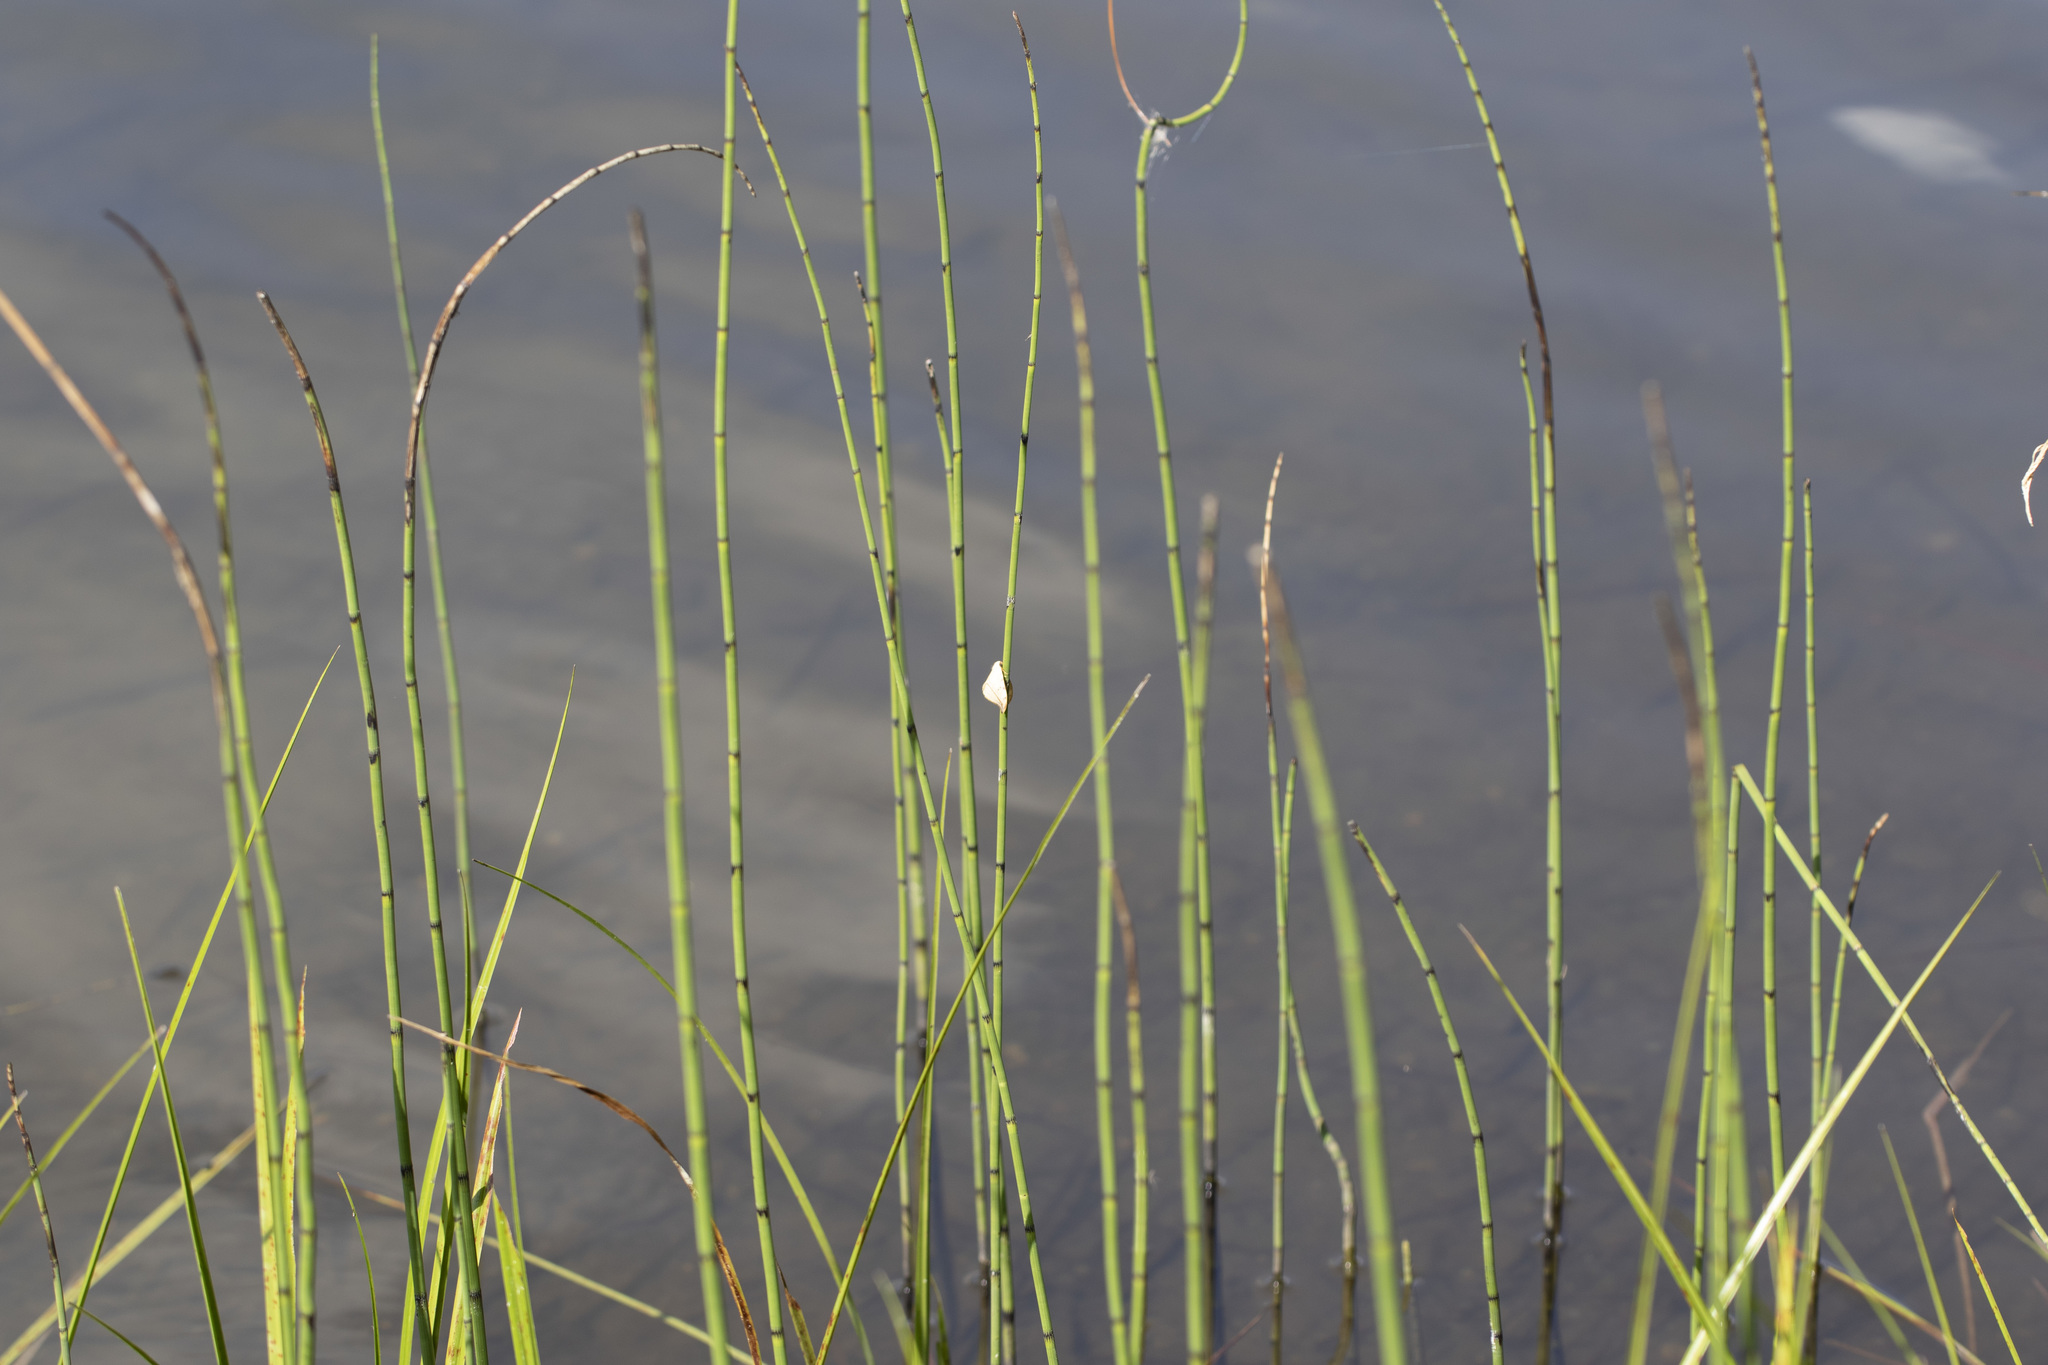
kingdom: Plantae
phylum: Tracheophyta
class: Polypodiopsida
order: Equisetales
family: Equisetaceae
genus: Equisetum
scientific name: Equisetum fluviatile
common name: Water horsetail
